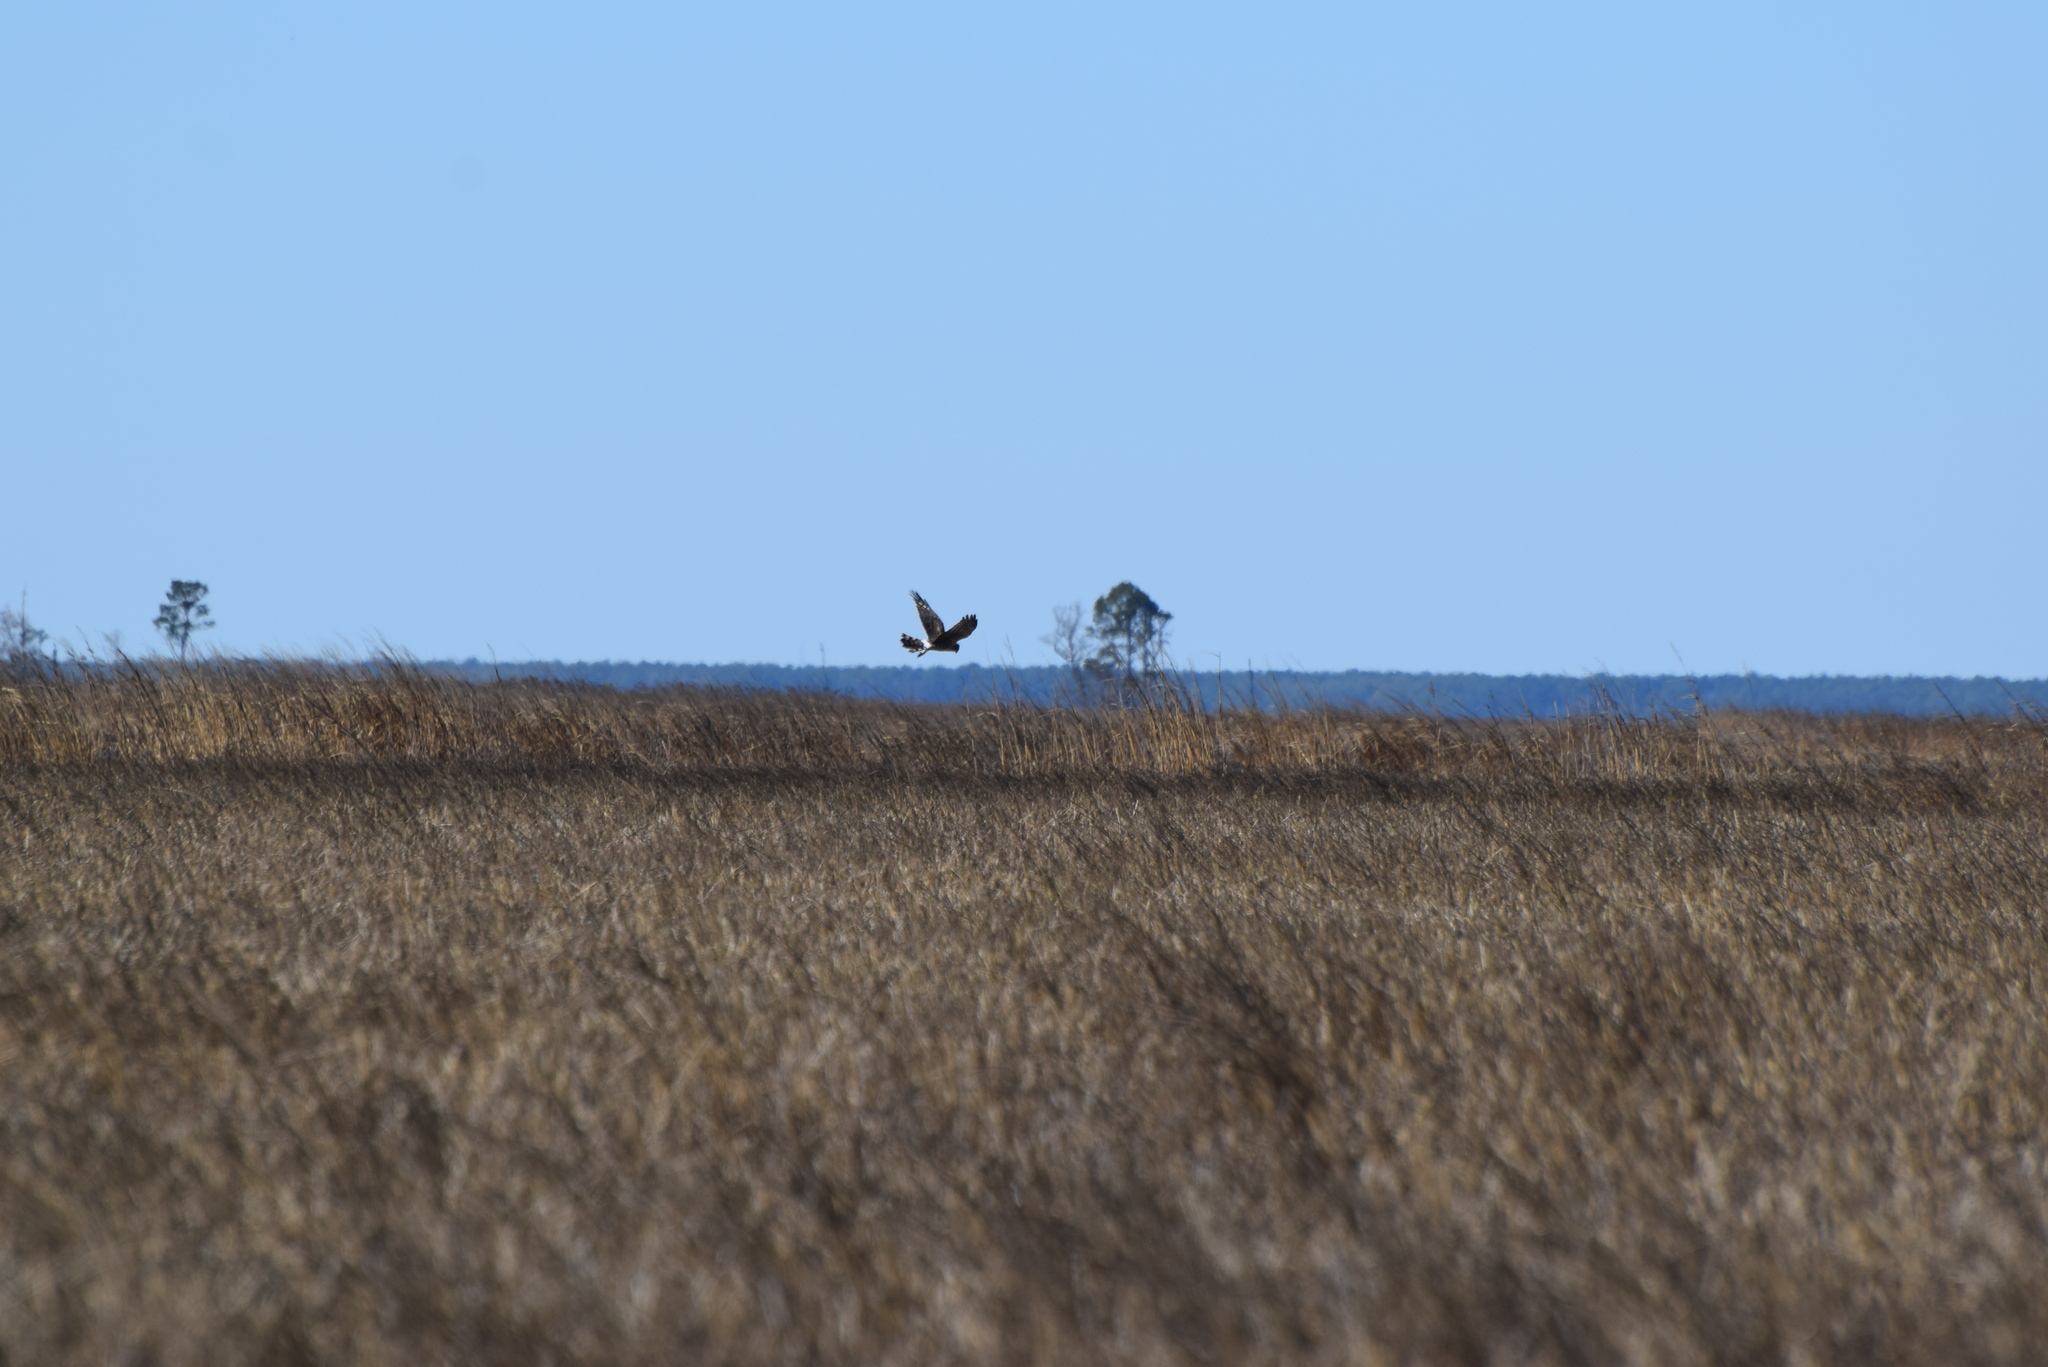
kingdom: Animalia
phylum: Chordata
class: Aves
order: Accipitriformes
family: Accipitridae
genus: Circus
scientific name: Circus cyaneus
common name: Hen harrier
